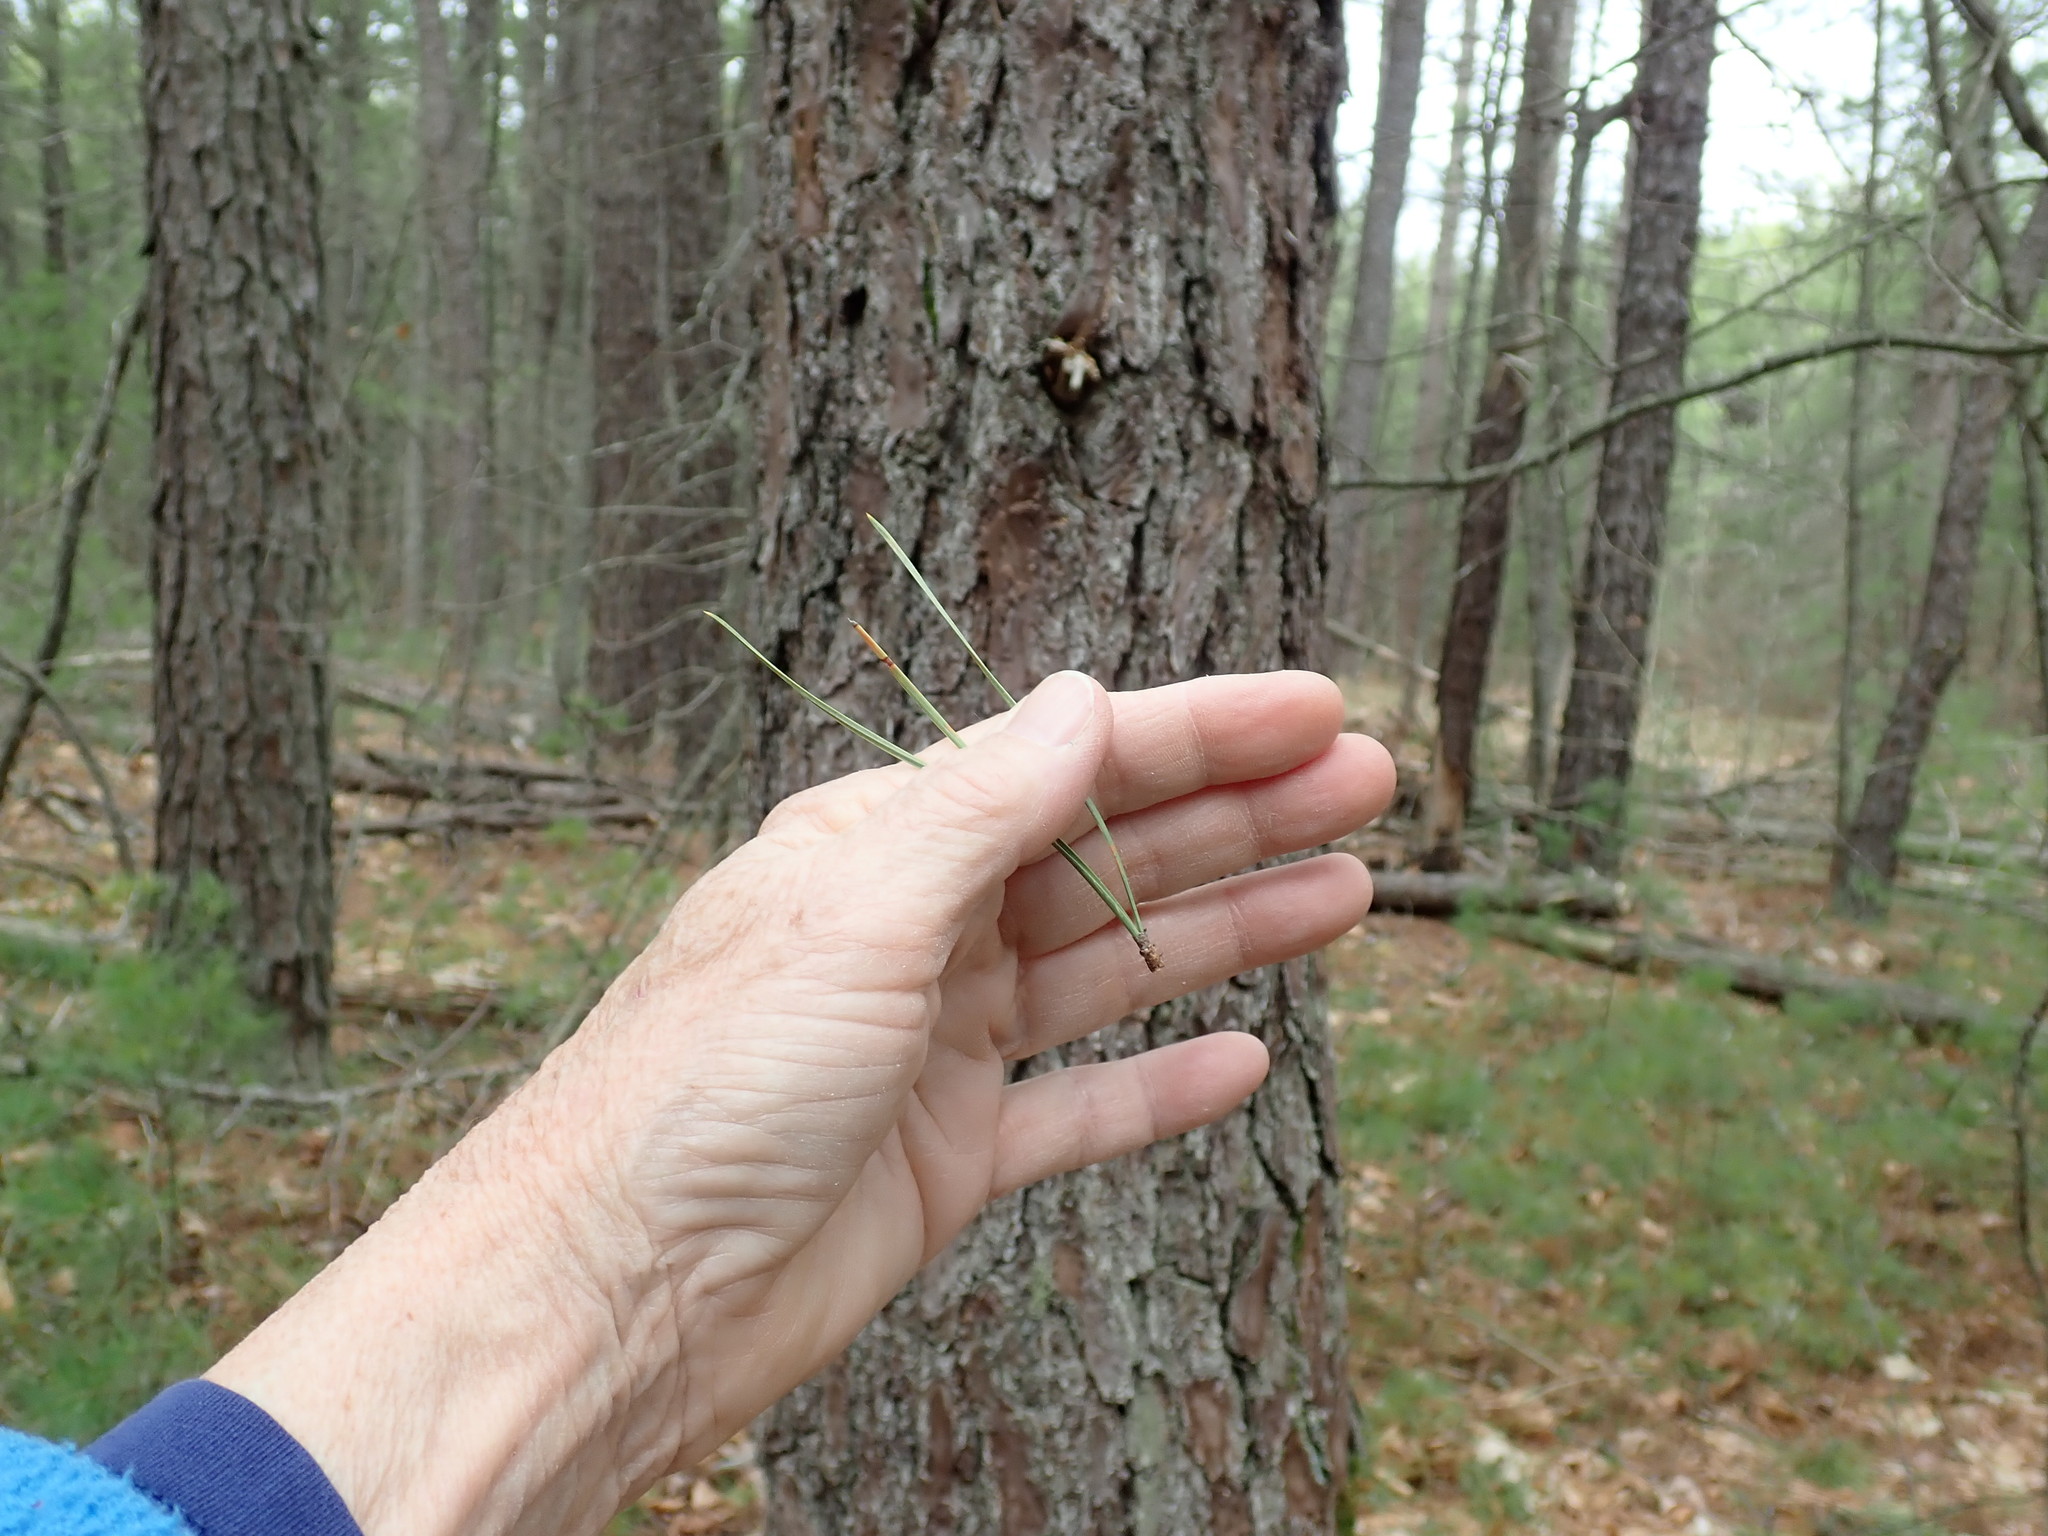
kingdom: Plantae
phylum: Tracheophyta
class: Pinopsida
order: Pinales
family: Pinaceae
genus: Pinus
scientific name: Pinus rigida
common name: Pitch pine
